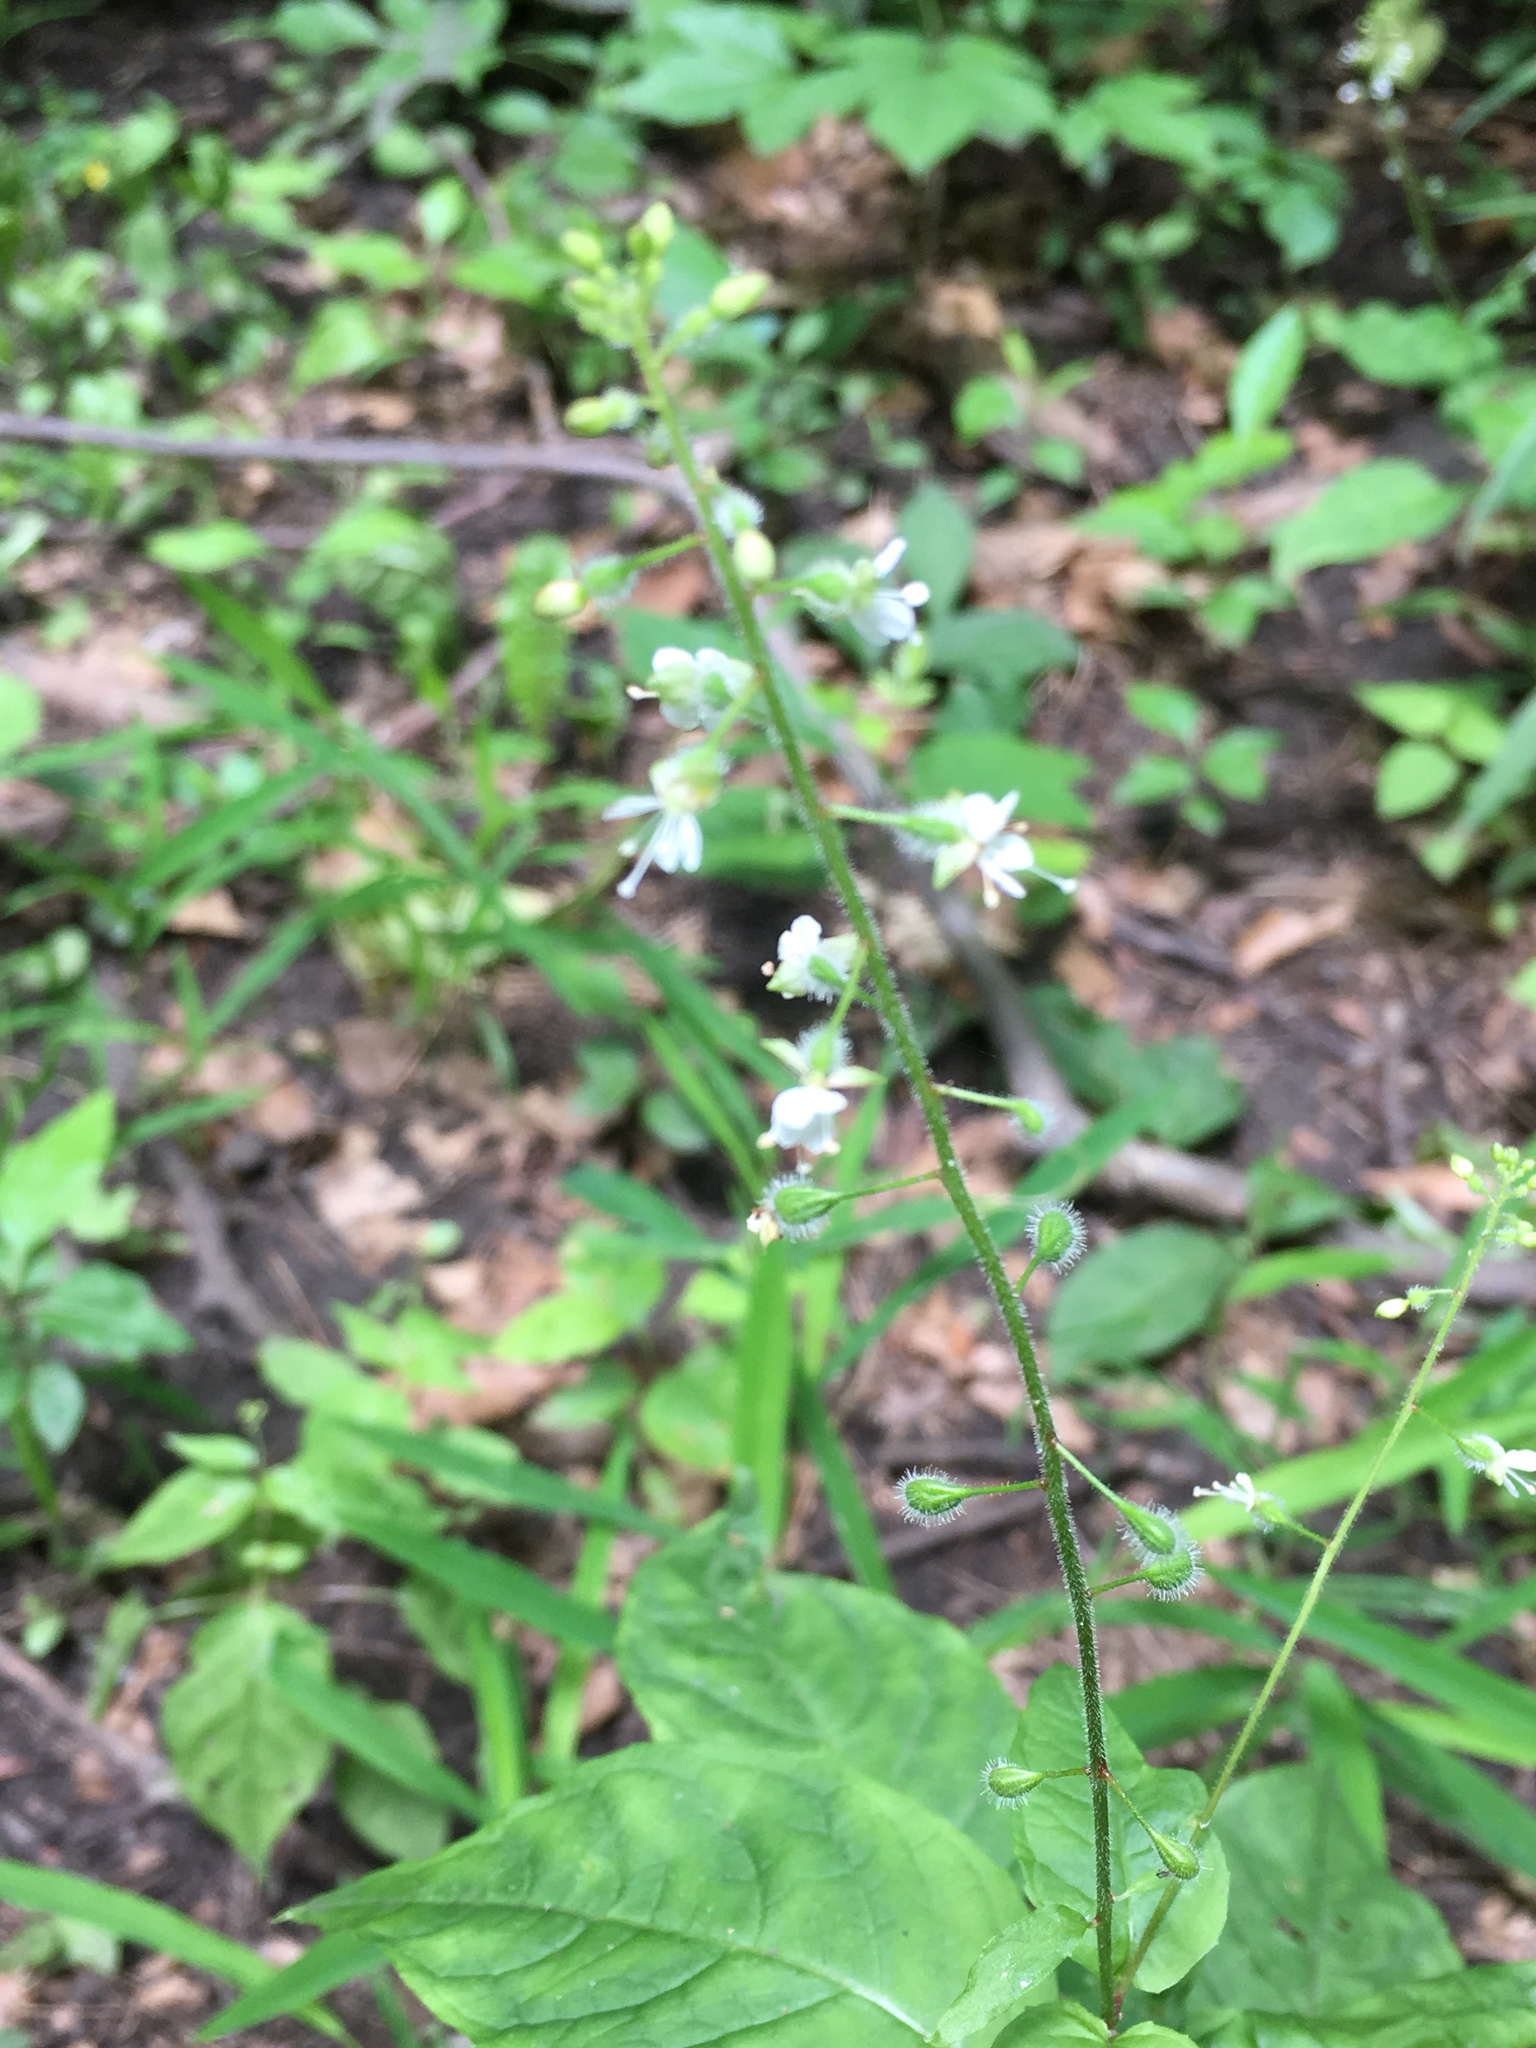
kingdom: Plantae
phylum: Tracheophyta
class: Magnoliopsida
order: Myrtales
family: Onagraceae
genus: Circaea
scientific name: Circaea canadensis
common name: Broad-leaved enchanter's nightshade
